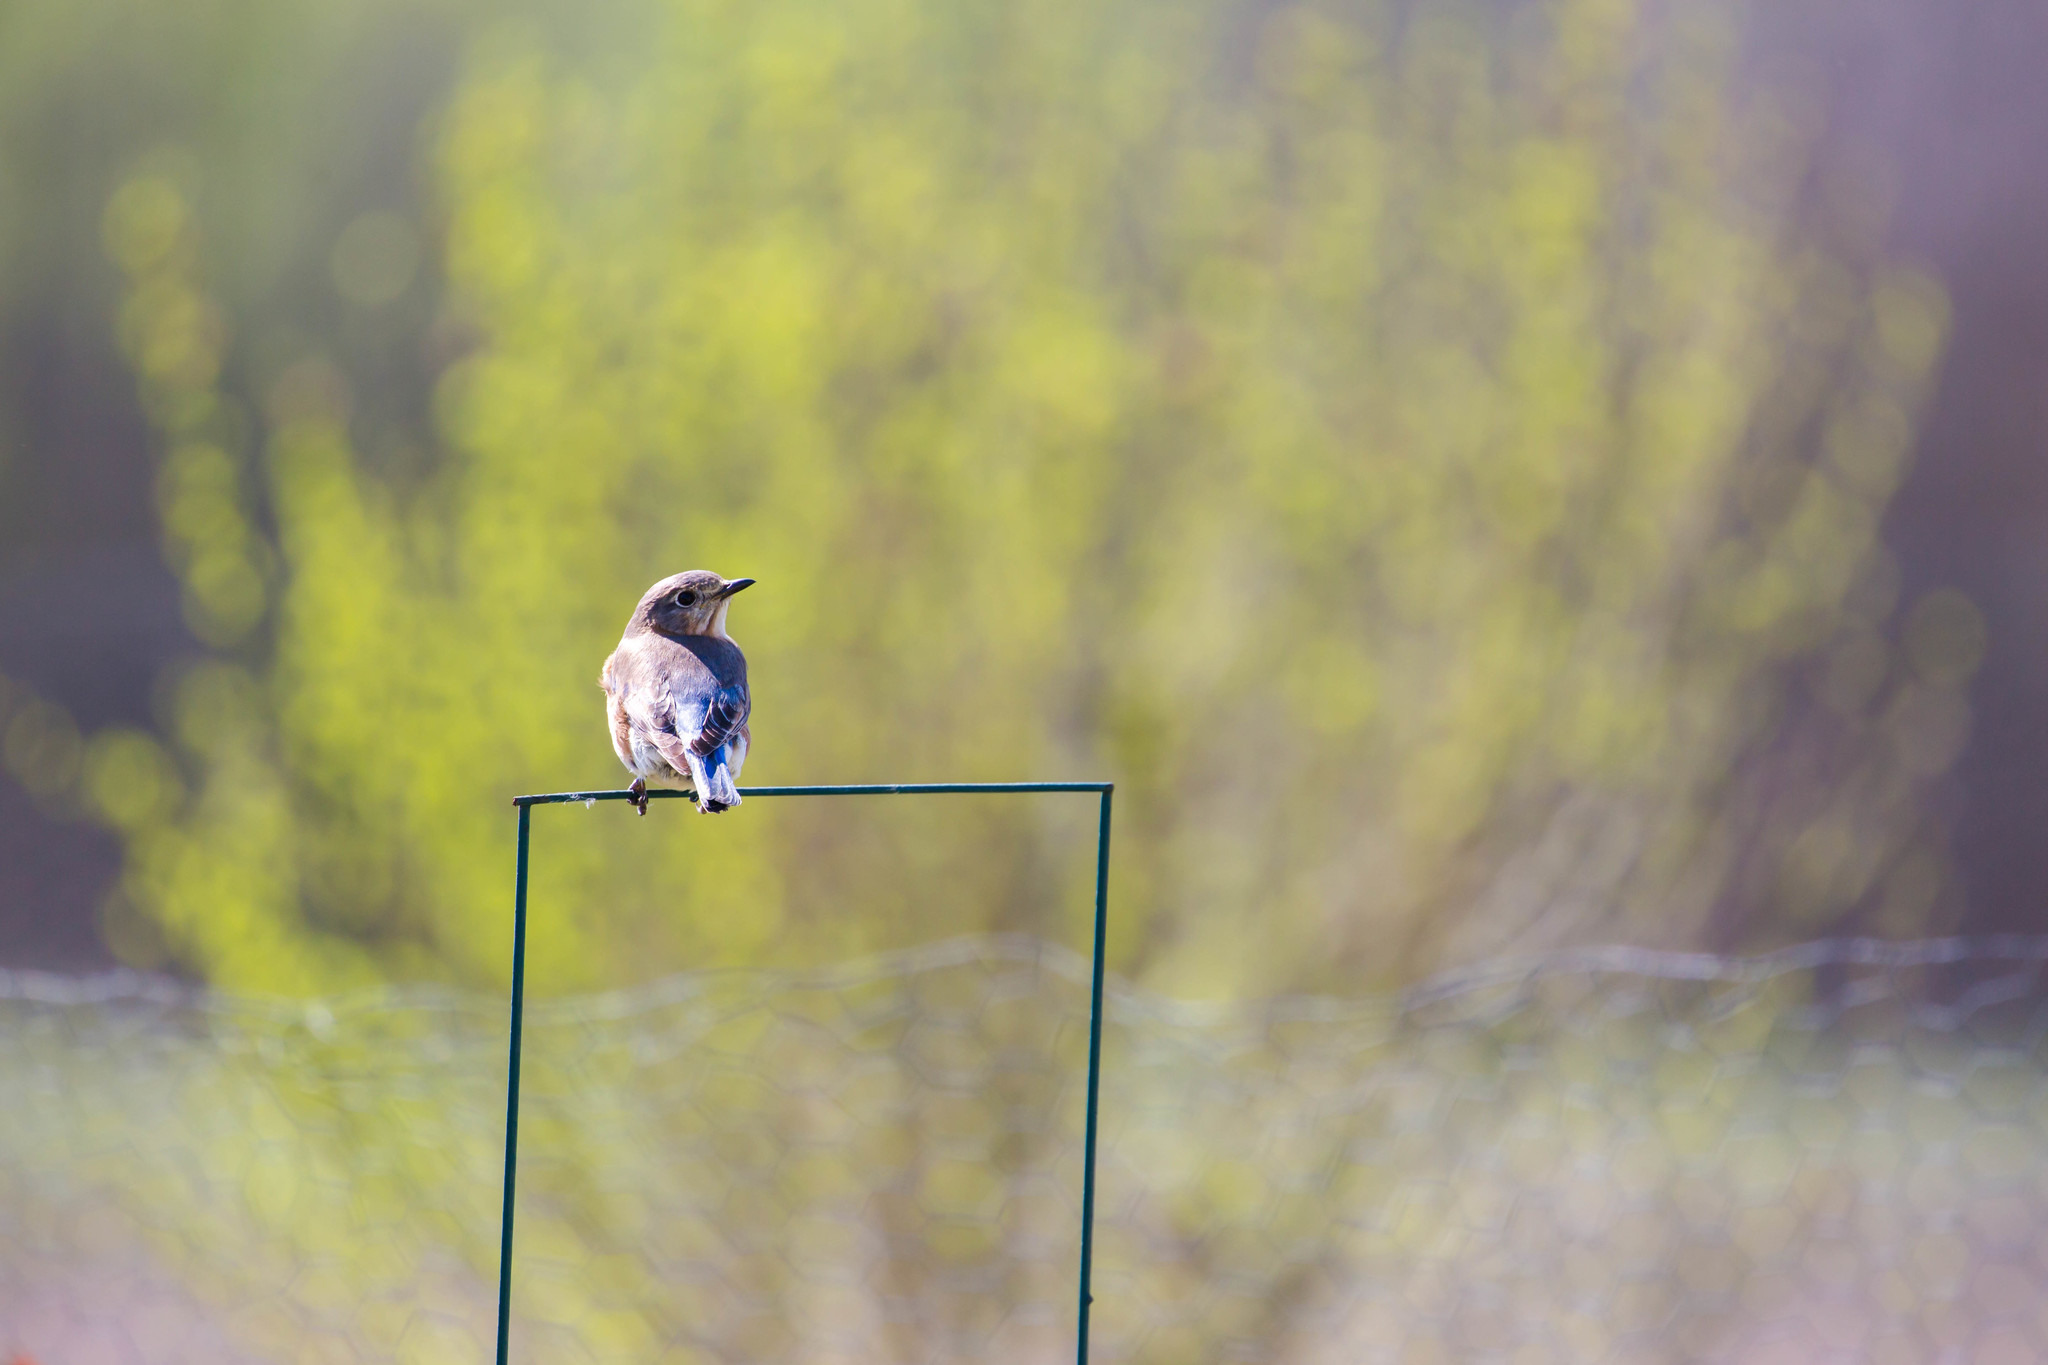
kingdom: Animalia
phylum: Chordata
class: Aves
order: Passeriformes
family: Turdidae
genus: Sialia
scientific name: Sialia sialis
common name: Eastern bluebird
